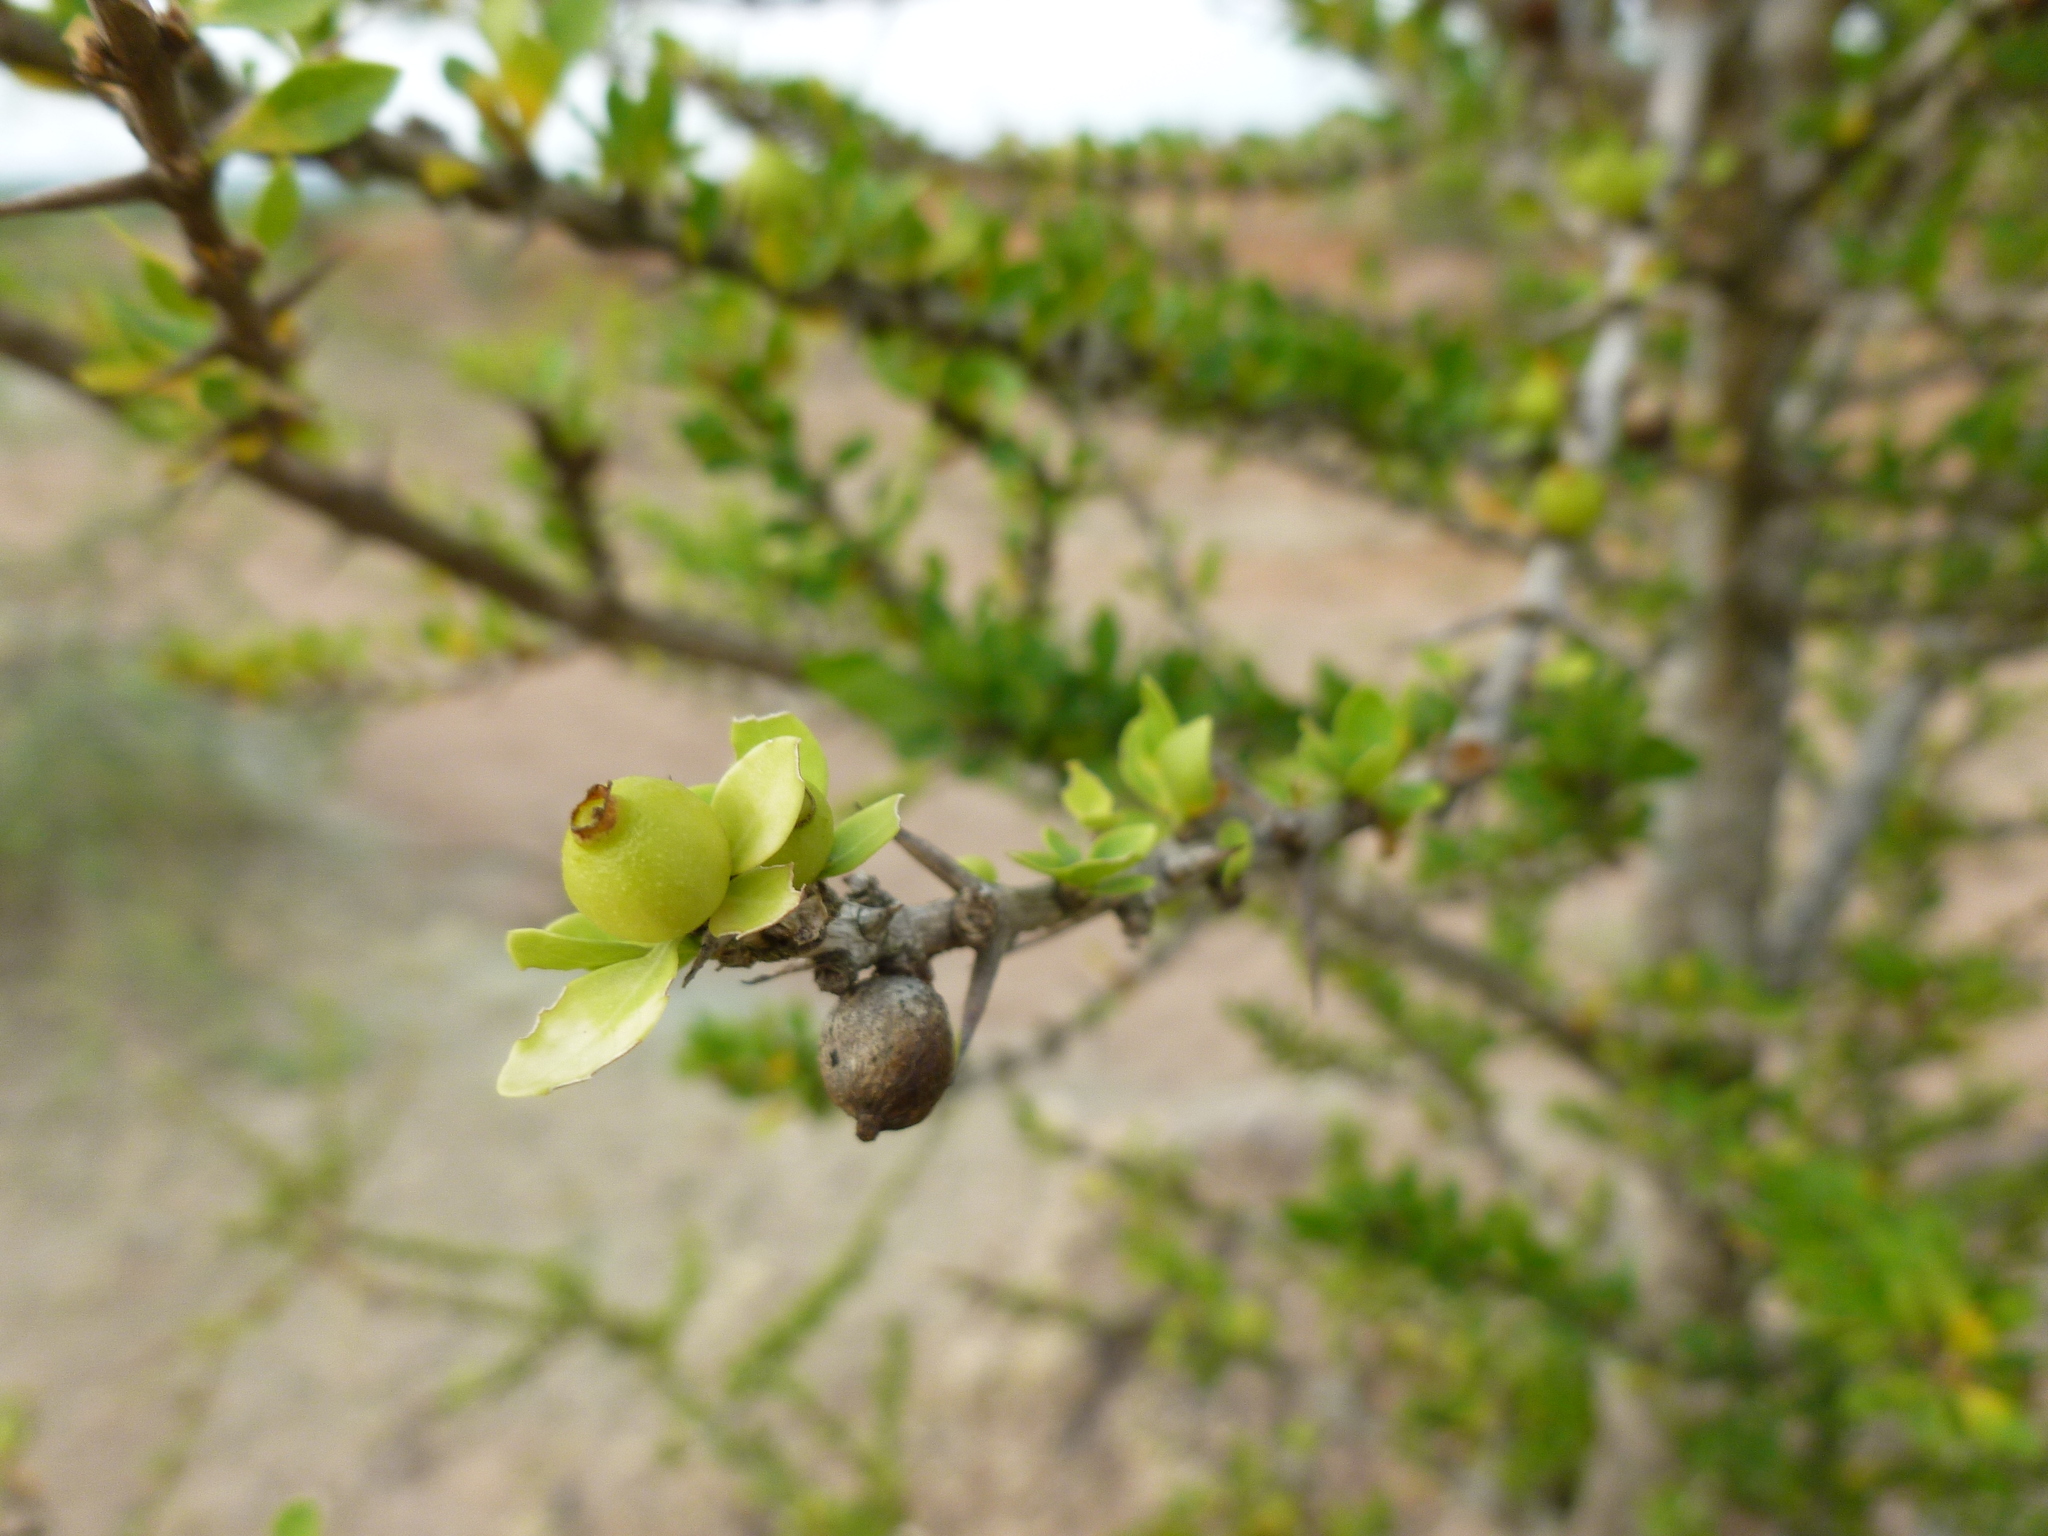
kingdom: Plantae
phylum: Tracheophyta
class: Magnoliopsida
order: Gentianales
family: Rubiaceae
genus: Randia
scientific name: Randia aculeata
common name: Inkberry
